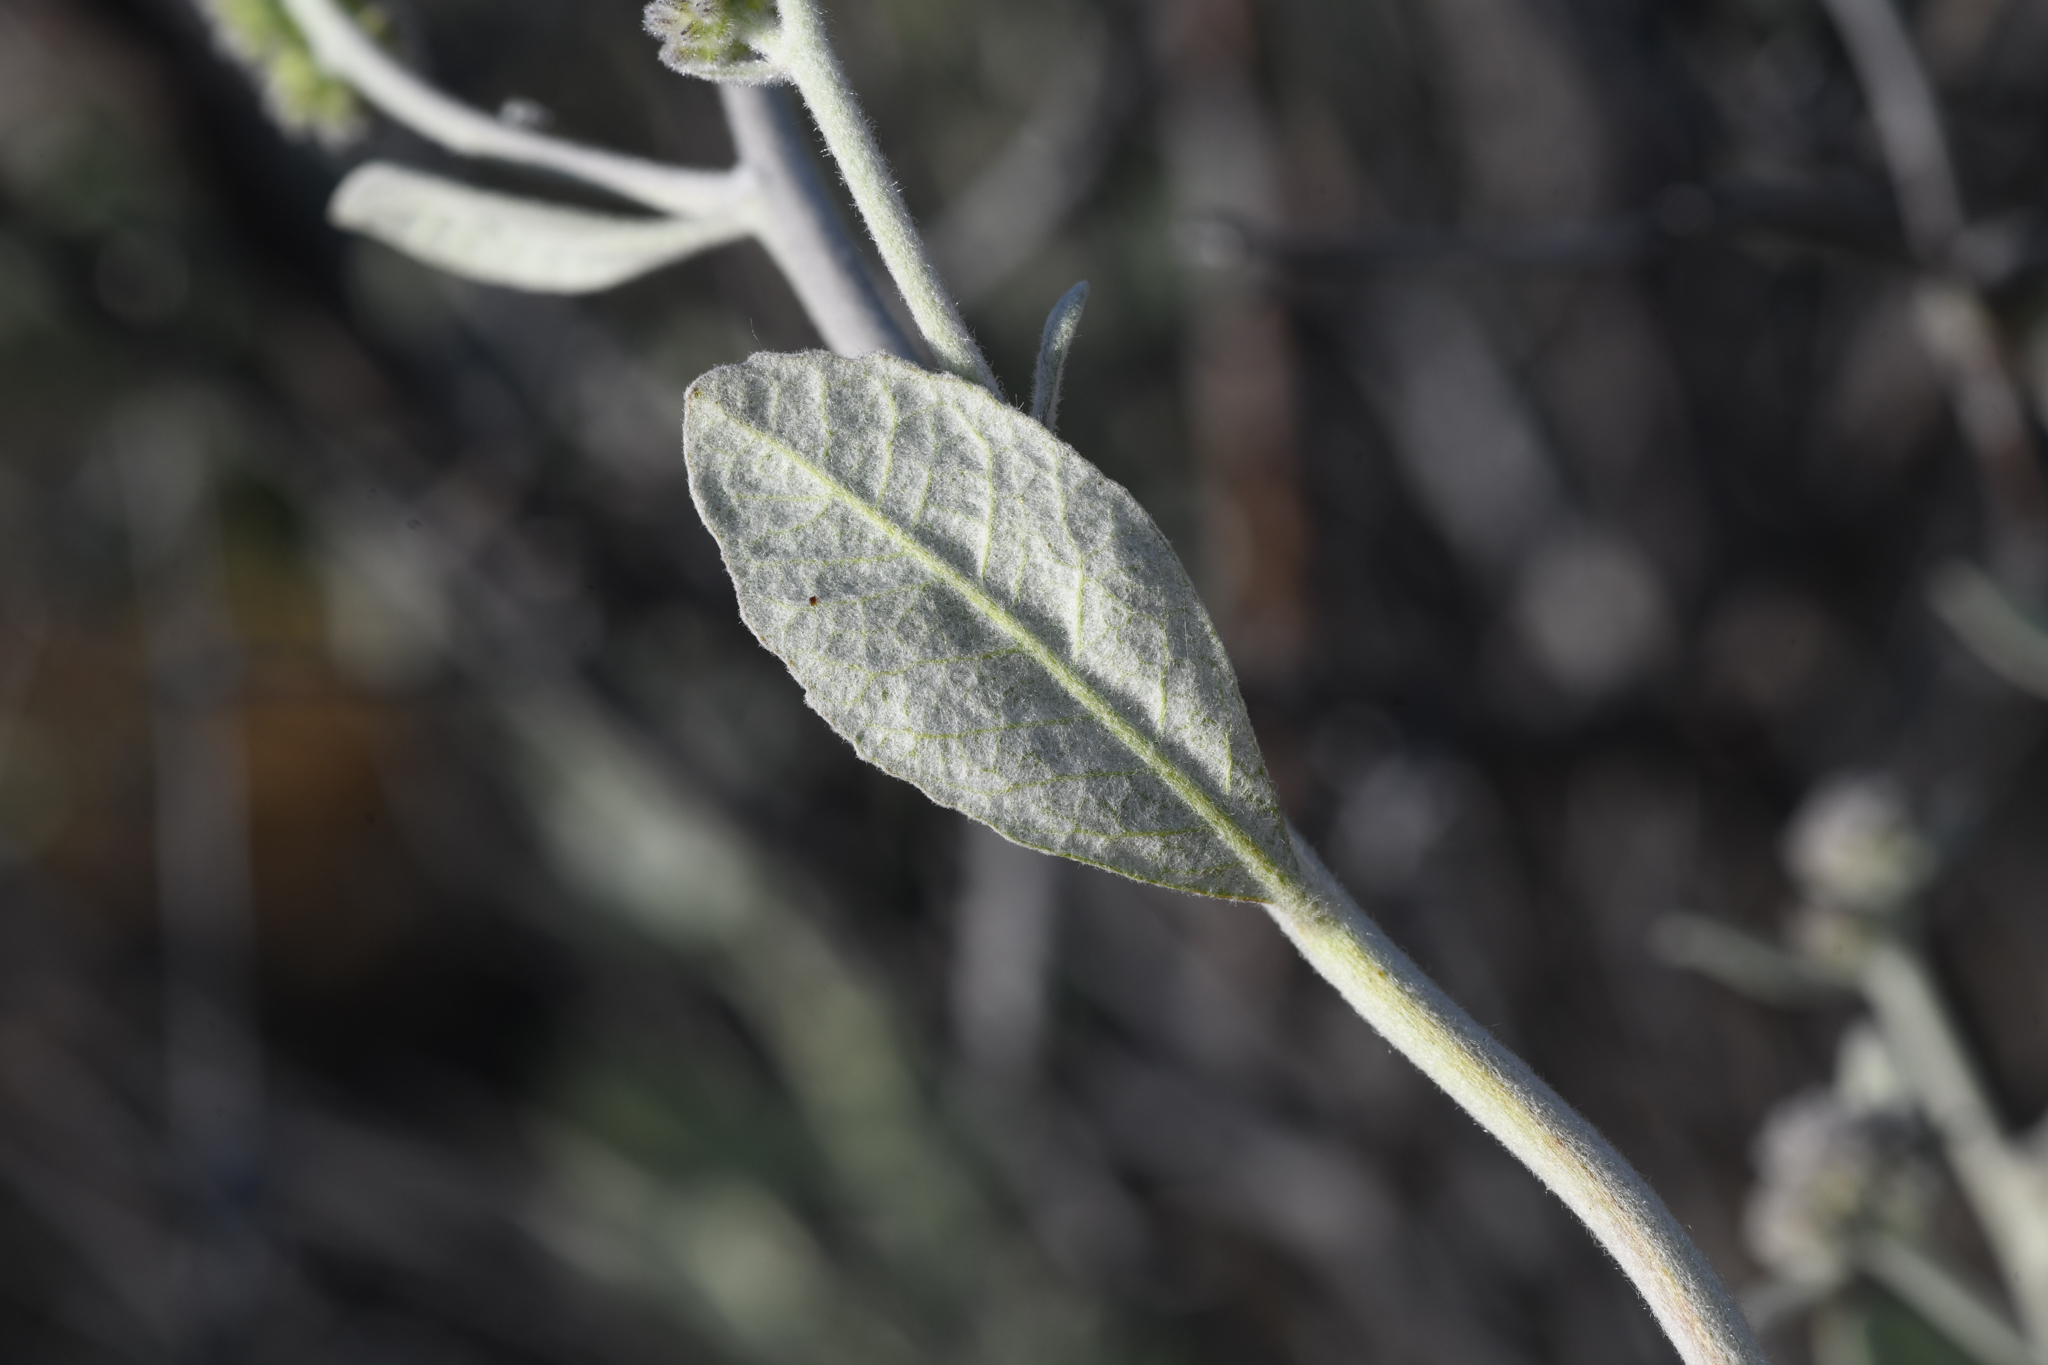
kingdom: Plantae
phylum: Tracheophyta
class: Magnoliopsida
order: Boraginales
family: Namaceae
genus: Eriodictyon
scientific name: Eriodictyon tomentosum
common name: Woolly yerba-santa
